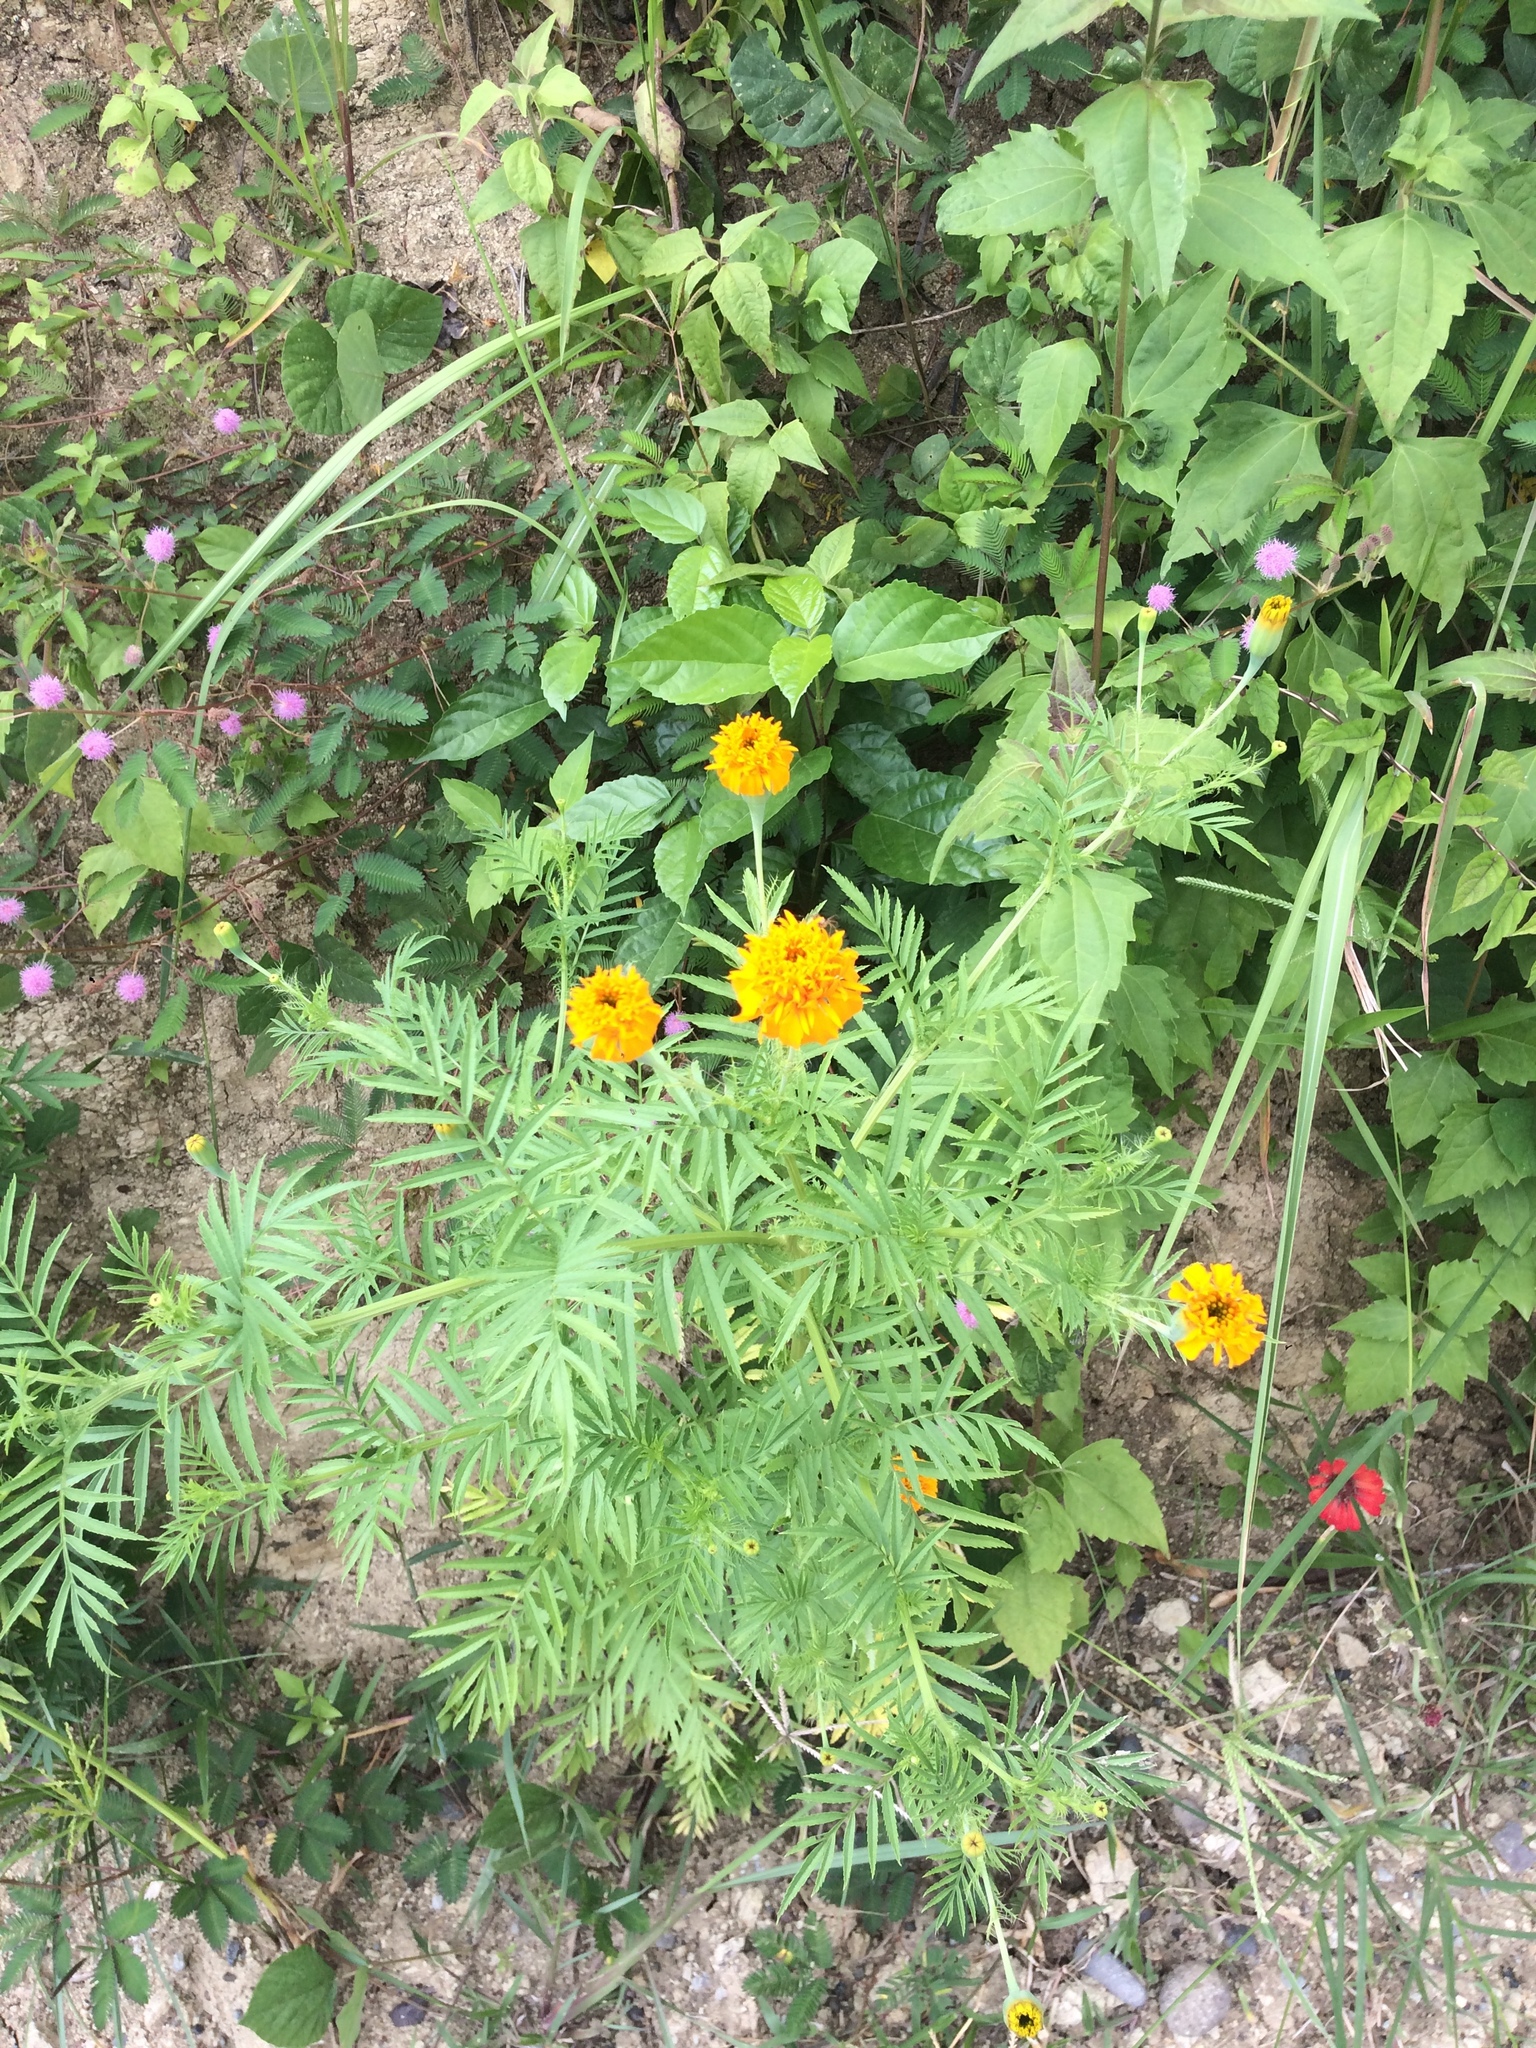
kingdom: Plantae
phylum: Tracheophyta
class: Magnoliopsida
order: Asterales
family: Asteraceae
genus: Tagetes
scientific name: Tagetes erecta
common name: African marigold
